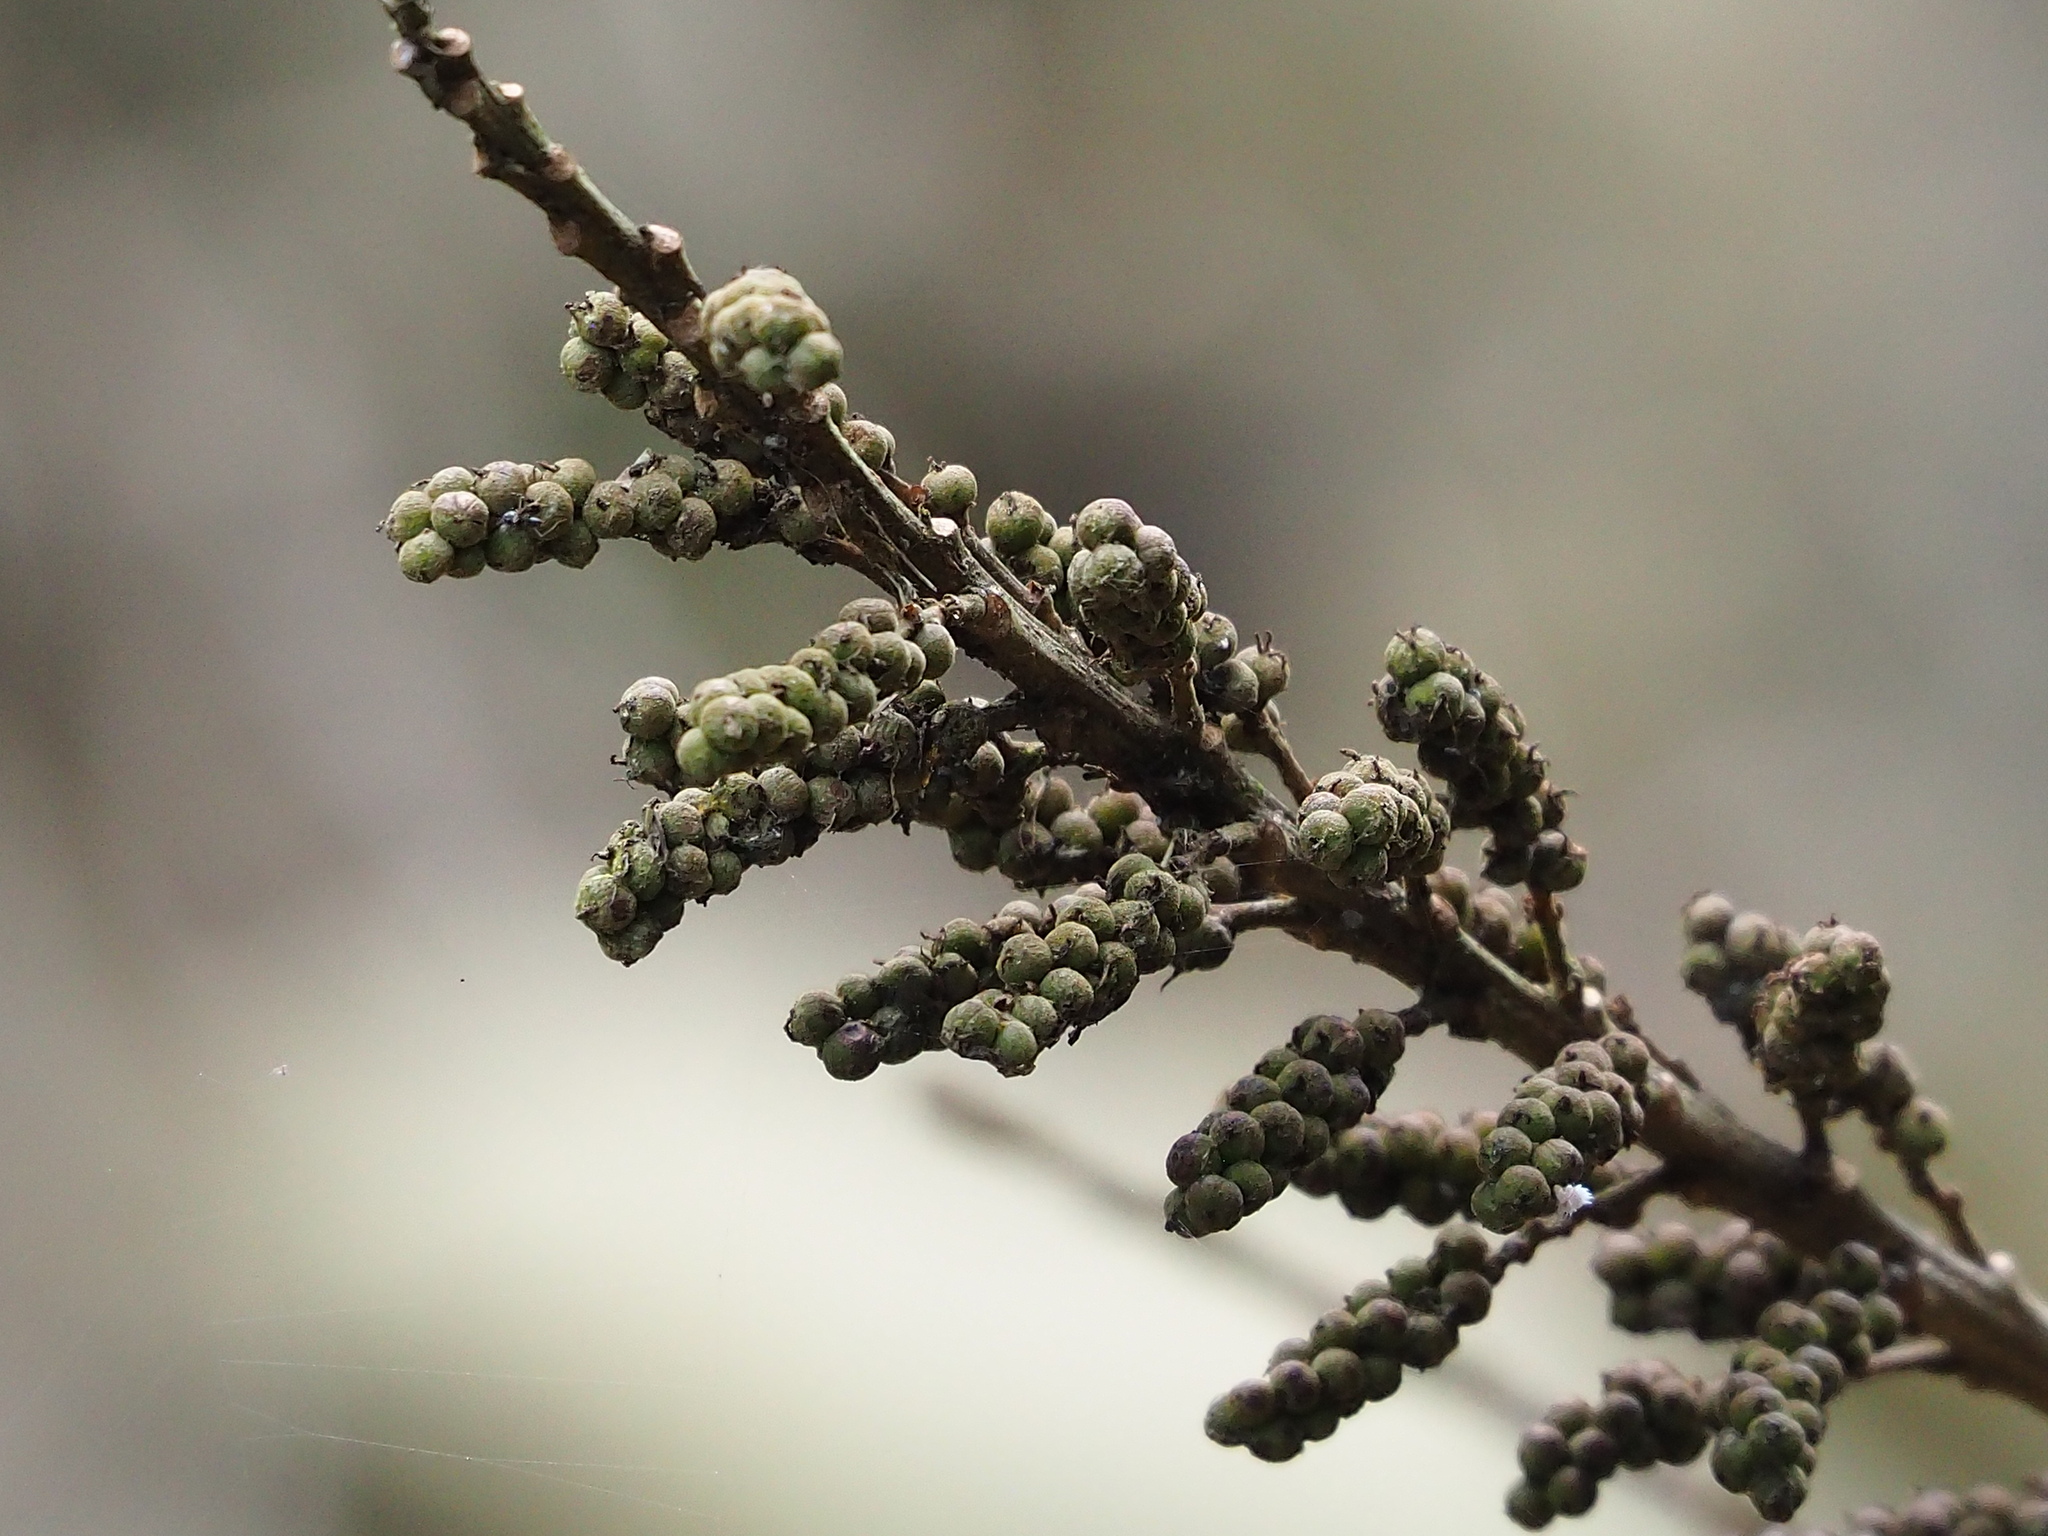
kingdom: Plantae
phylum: Tracheophyta
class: Magnoliopsida
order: Malpighiales
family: Euphorbiaceae
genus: Homonoia
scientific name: Homonoia riparia
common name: Willow-leaved water croton
